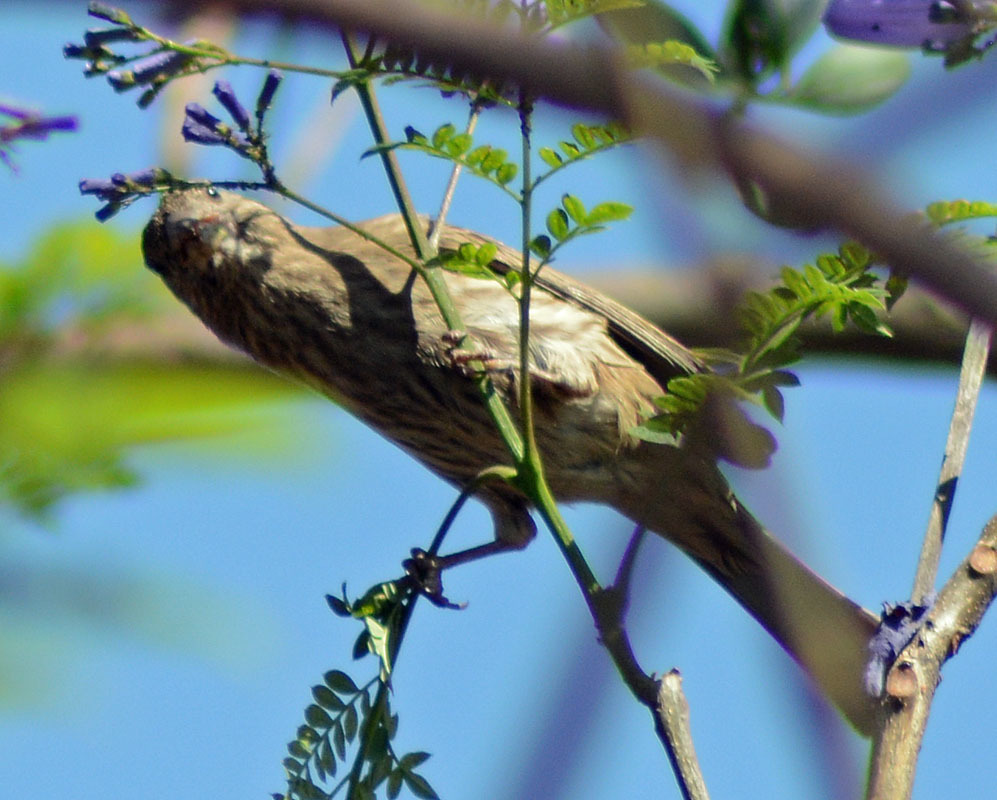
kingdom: Animalia
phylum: Chordata
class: Aves
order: Passeriformes
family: Fringillidae
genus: Haemorhous
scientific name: Haemorhous mexicanus
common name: House finch
